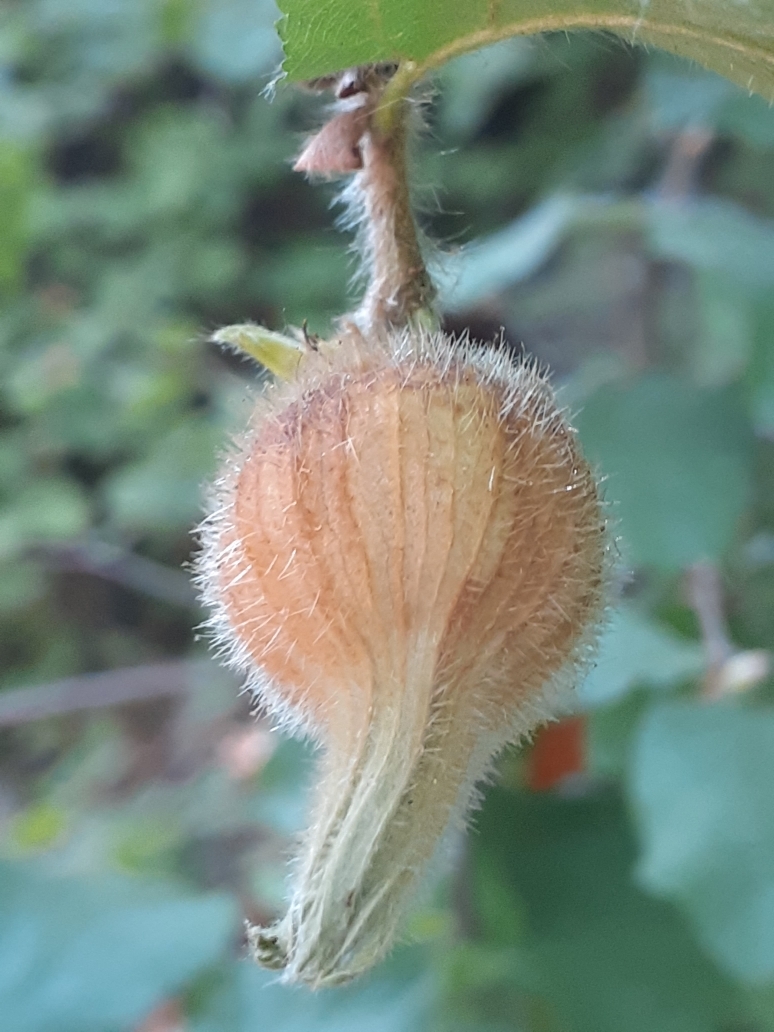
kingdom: Plantae
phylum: Tracheophyta
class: Magnoliopsida
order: Fagales
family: Betulaceae
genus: Corylus
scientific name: Corylus cornuta
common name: Beaked hazel
